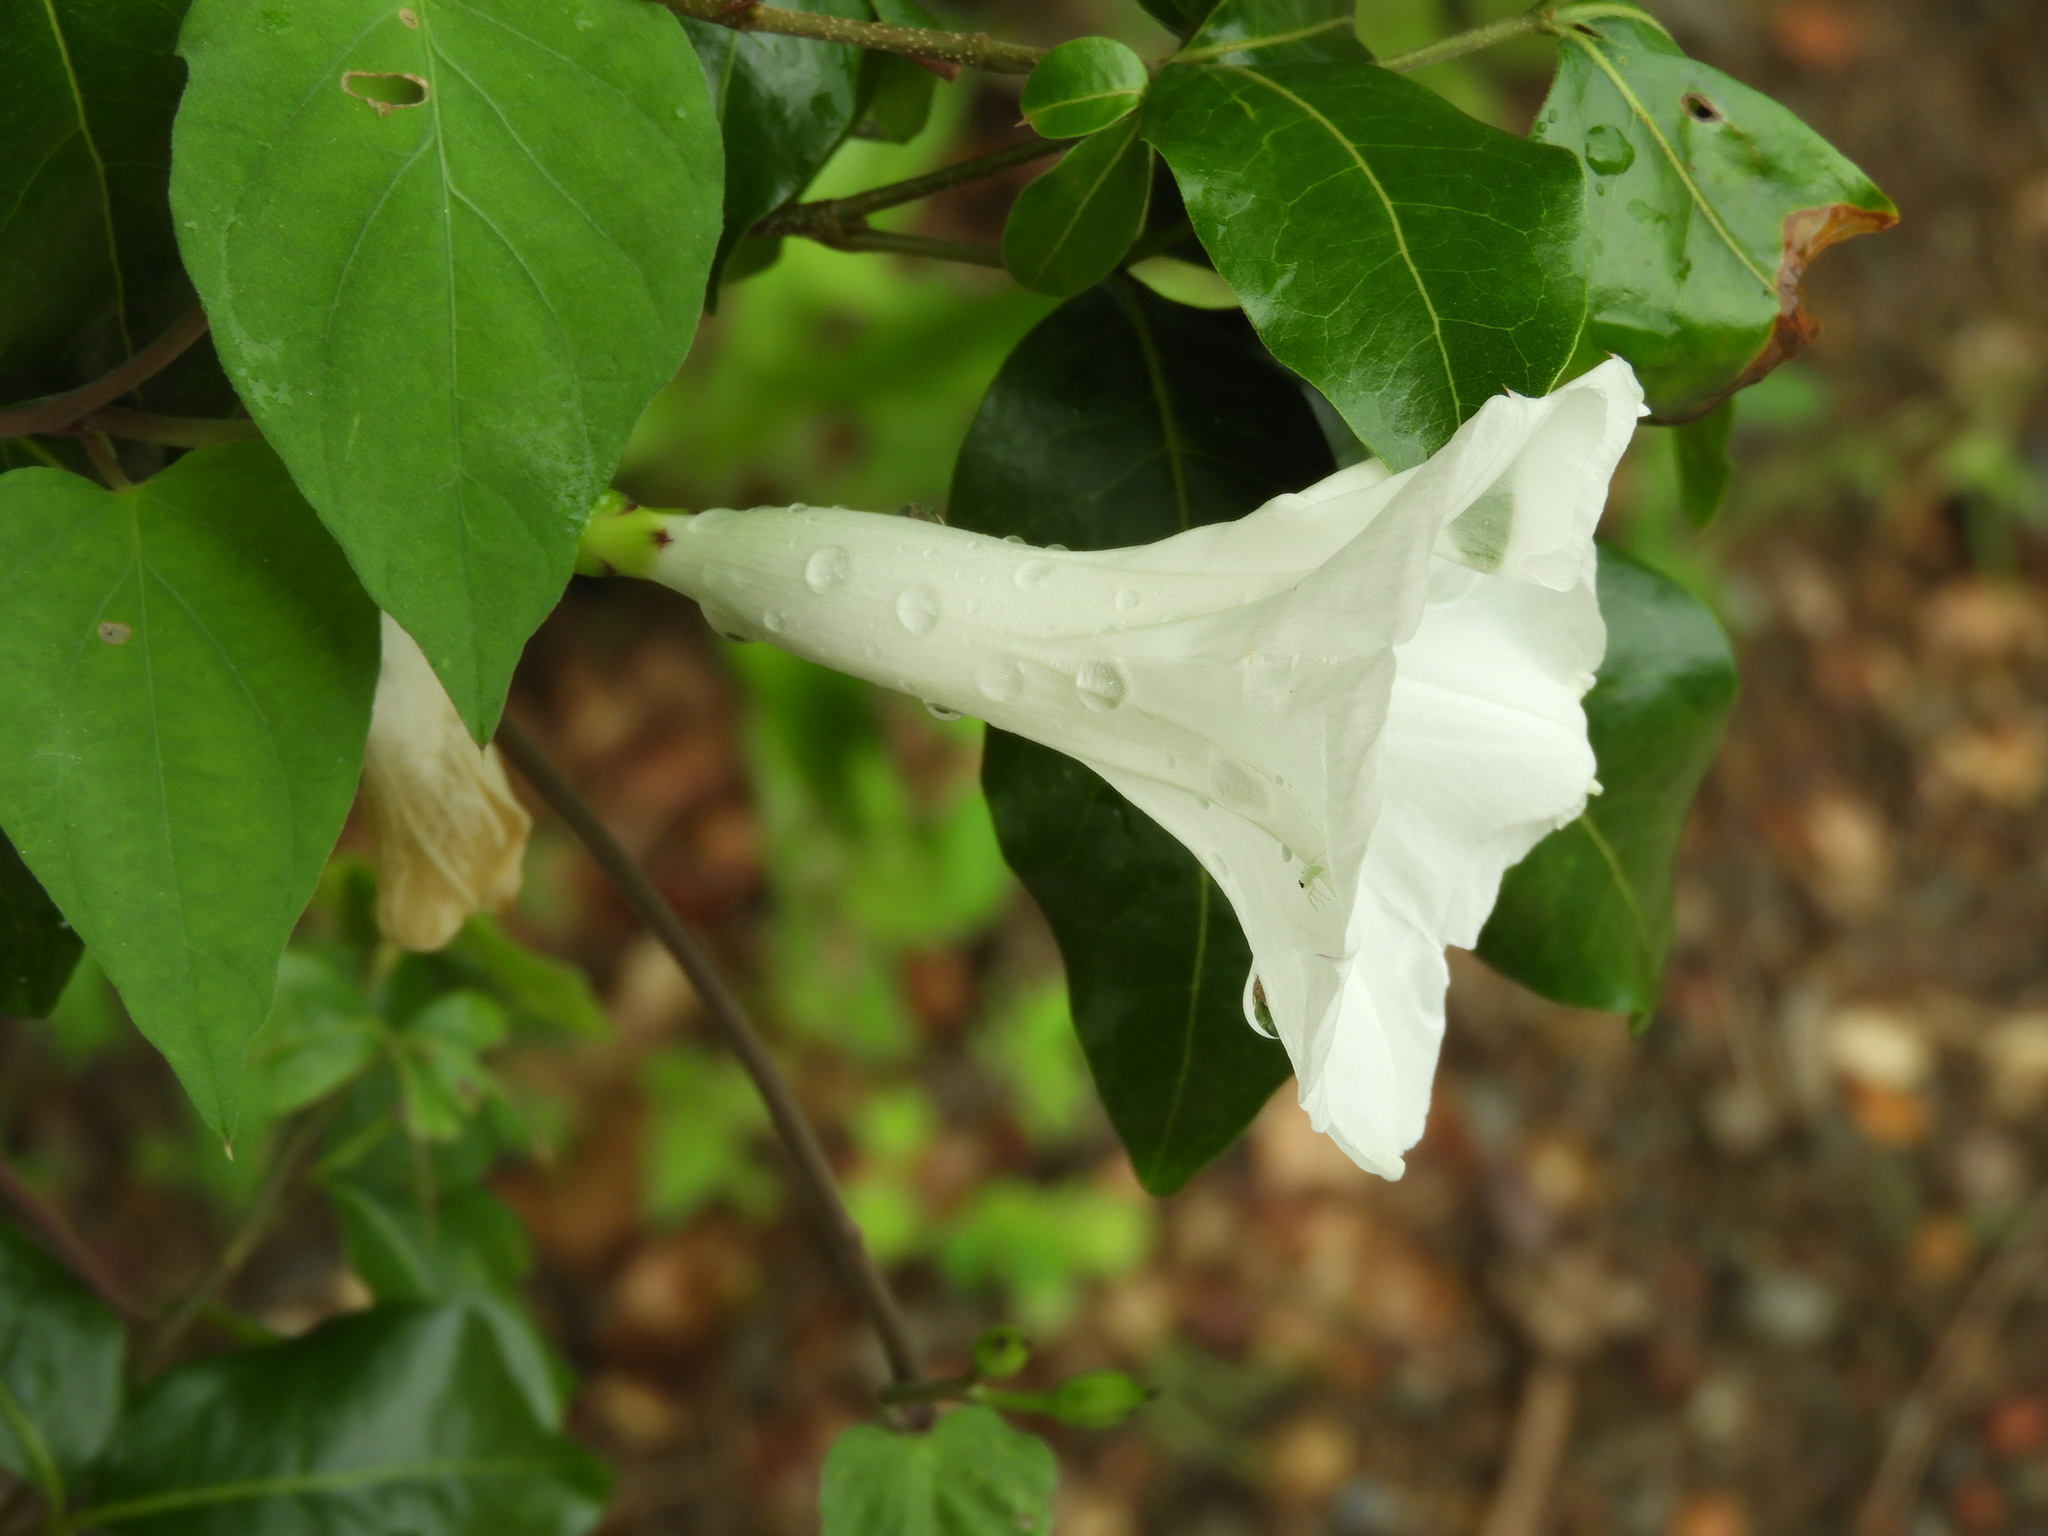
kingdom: Plantae
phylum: Tracheophyta
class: Magnoliopsida
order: Solanales
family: Convolvulaceae
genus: Ipomoea
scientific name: Ipomoea scopulorum
